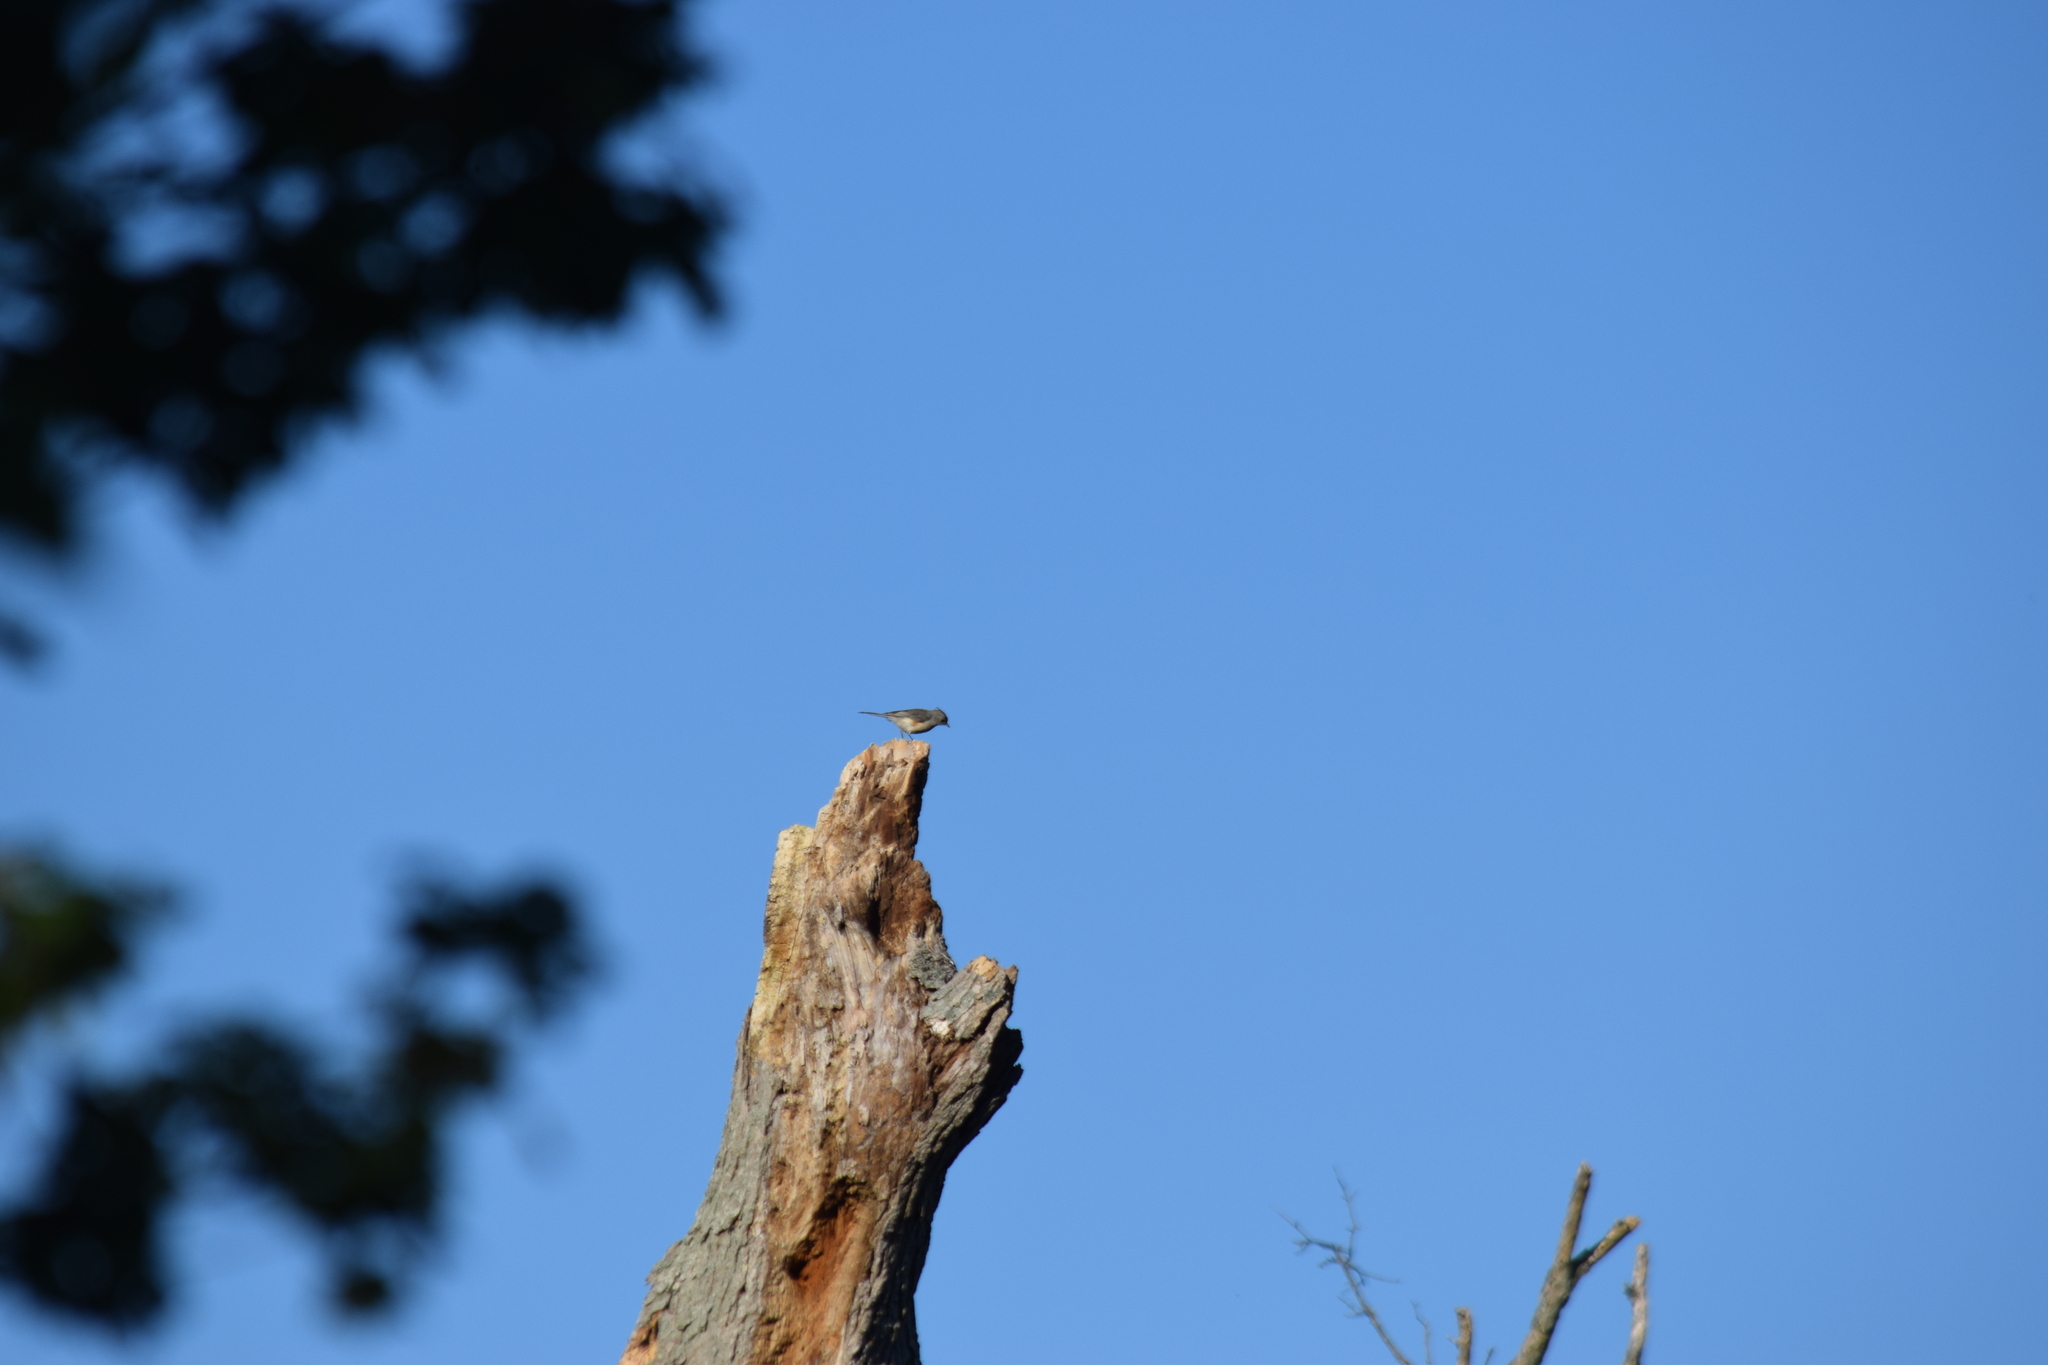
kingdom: Animalia
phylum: Chordata
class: Aves
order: Passeriformes
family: Paridae
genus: Baeolophus
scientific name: Baeolophus bicolor
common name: Tufted titmouse
